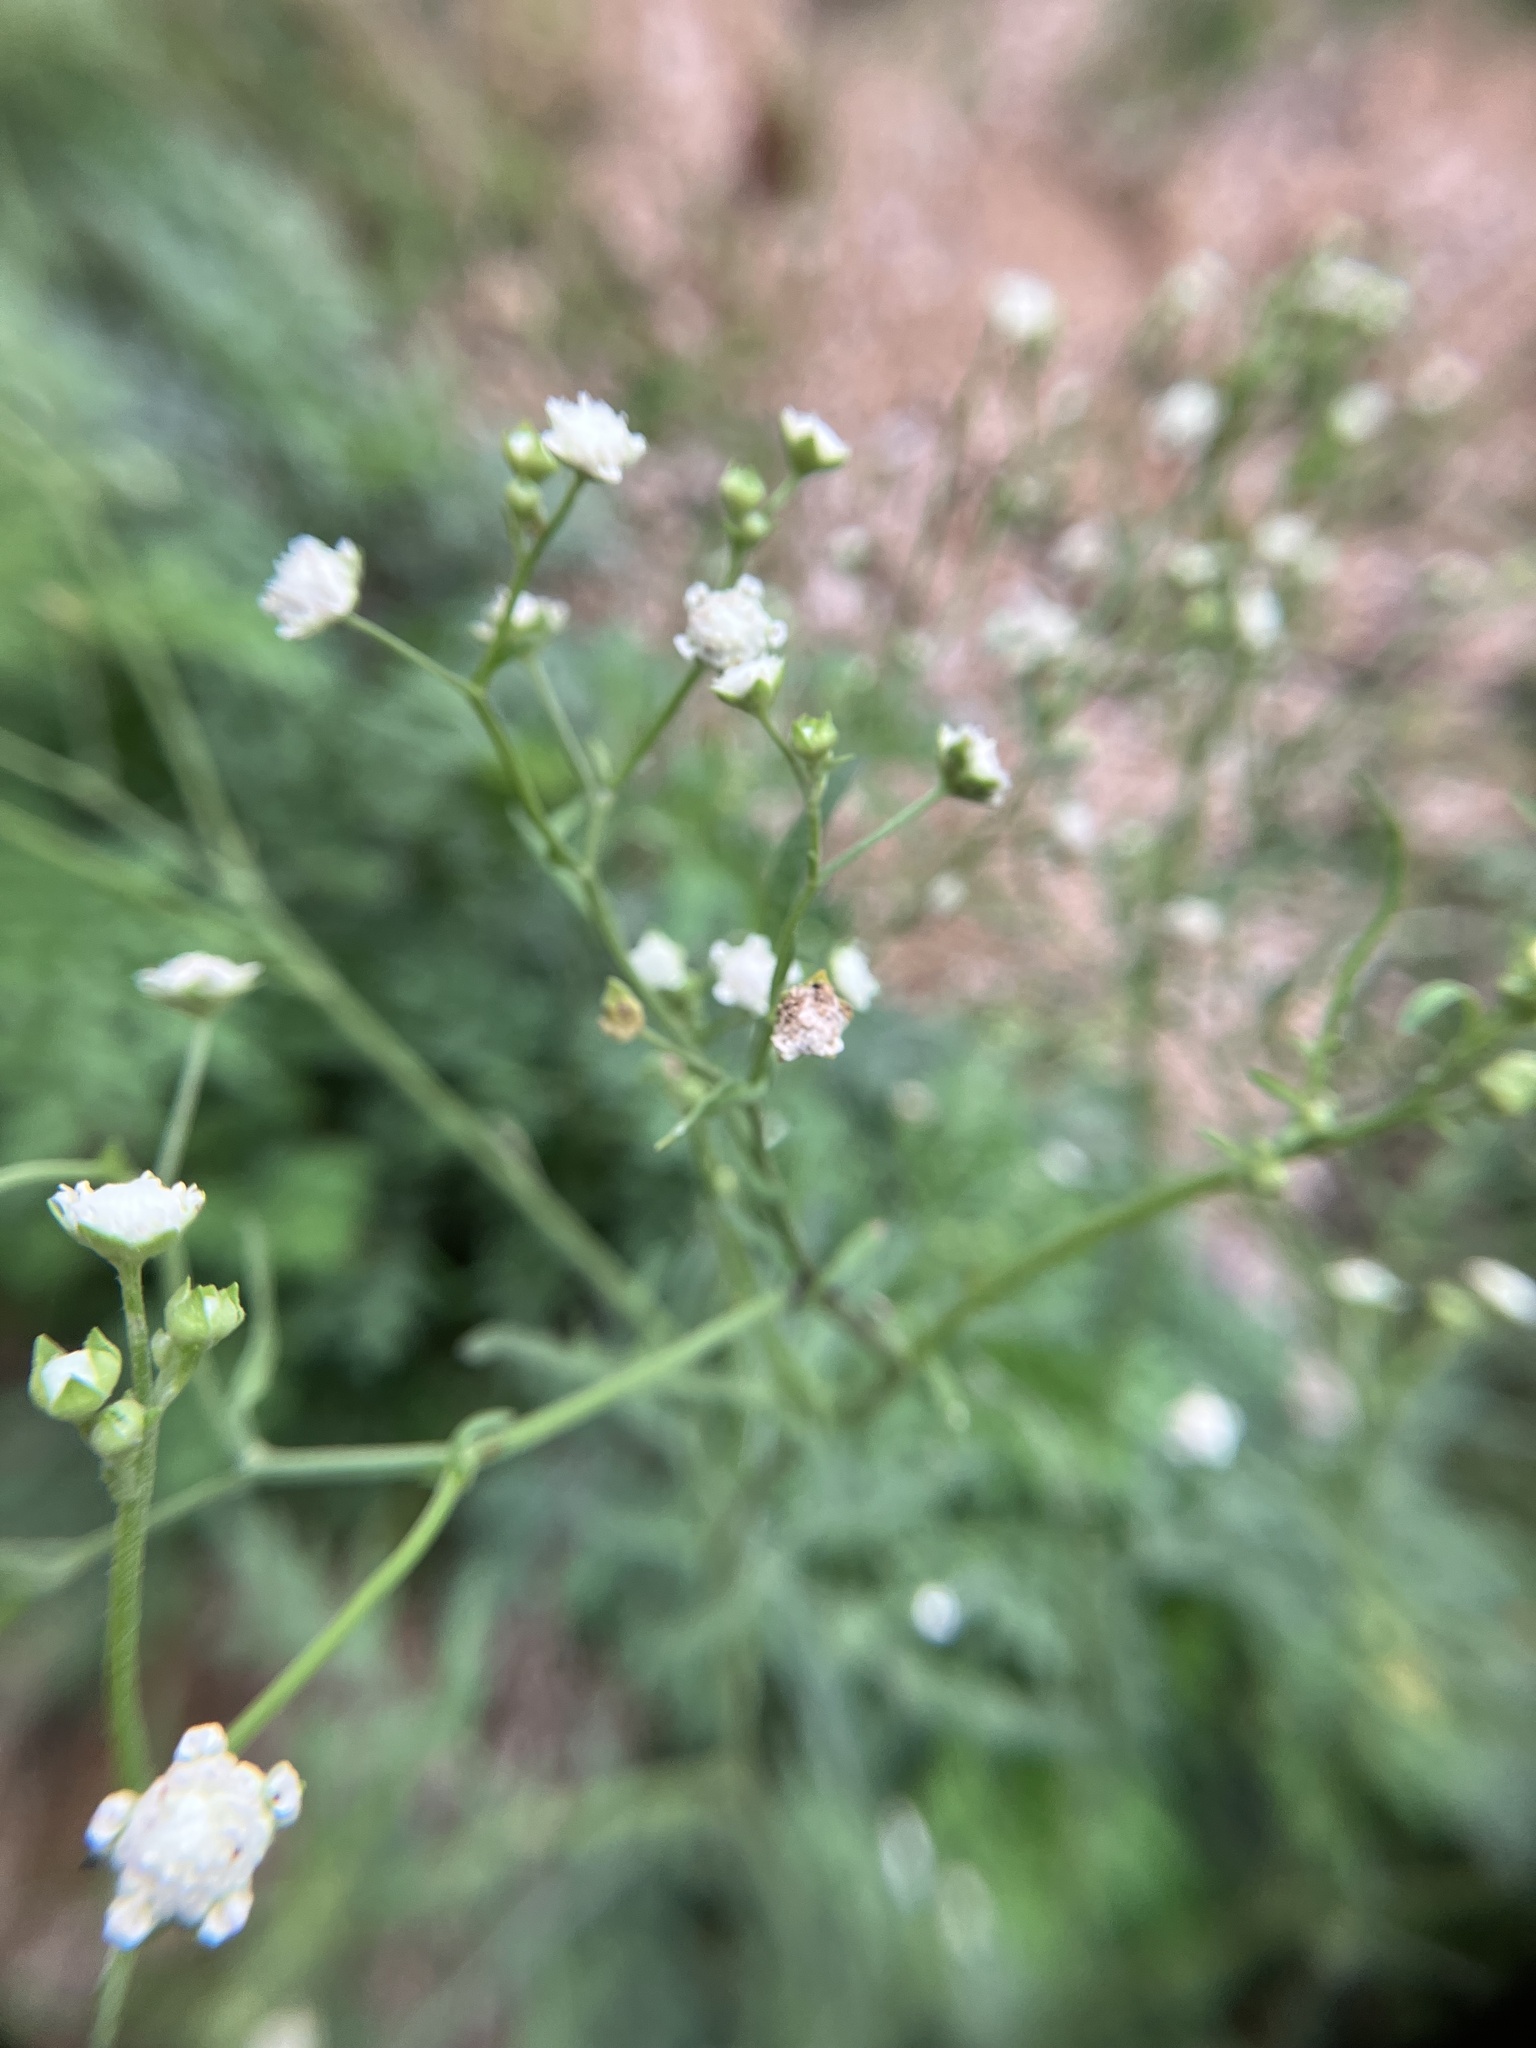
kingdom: Plantae
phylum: Tracheophyta
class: Magnoliopsida
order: Asterales
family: Asteraceae
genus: Parthenium
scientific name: Parthenium hysterophorus
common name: Santa maria feverfew
